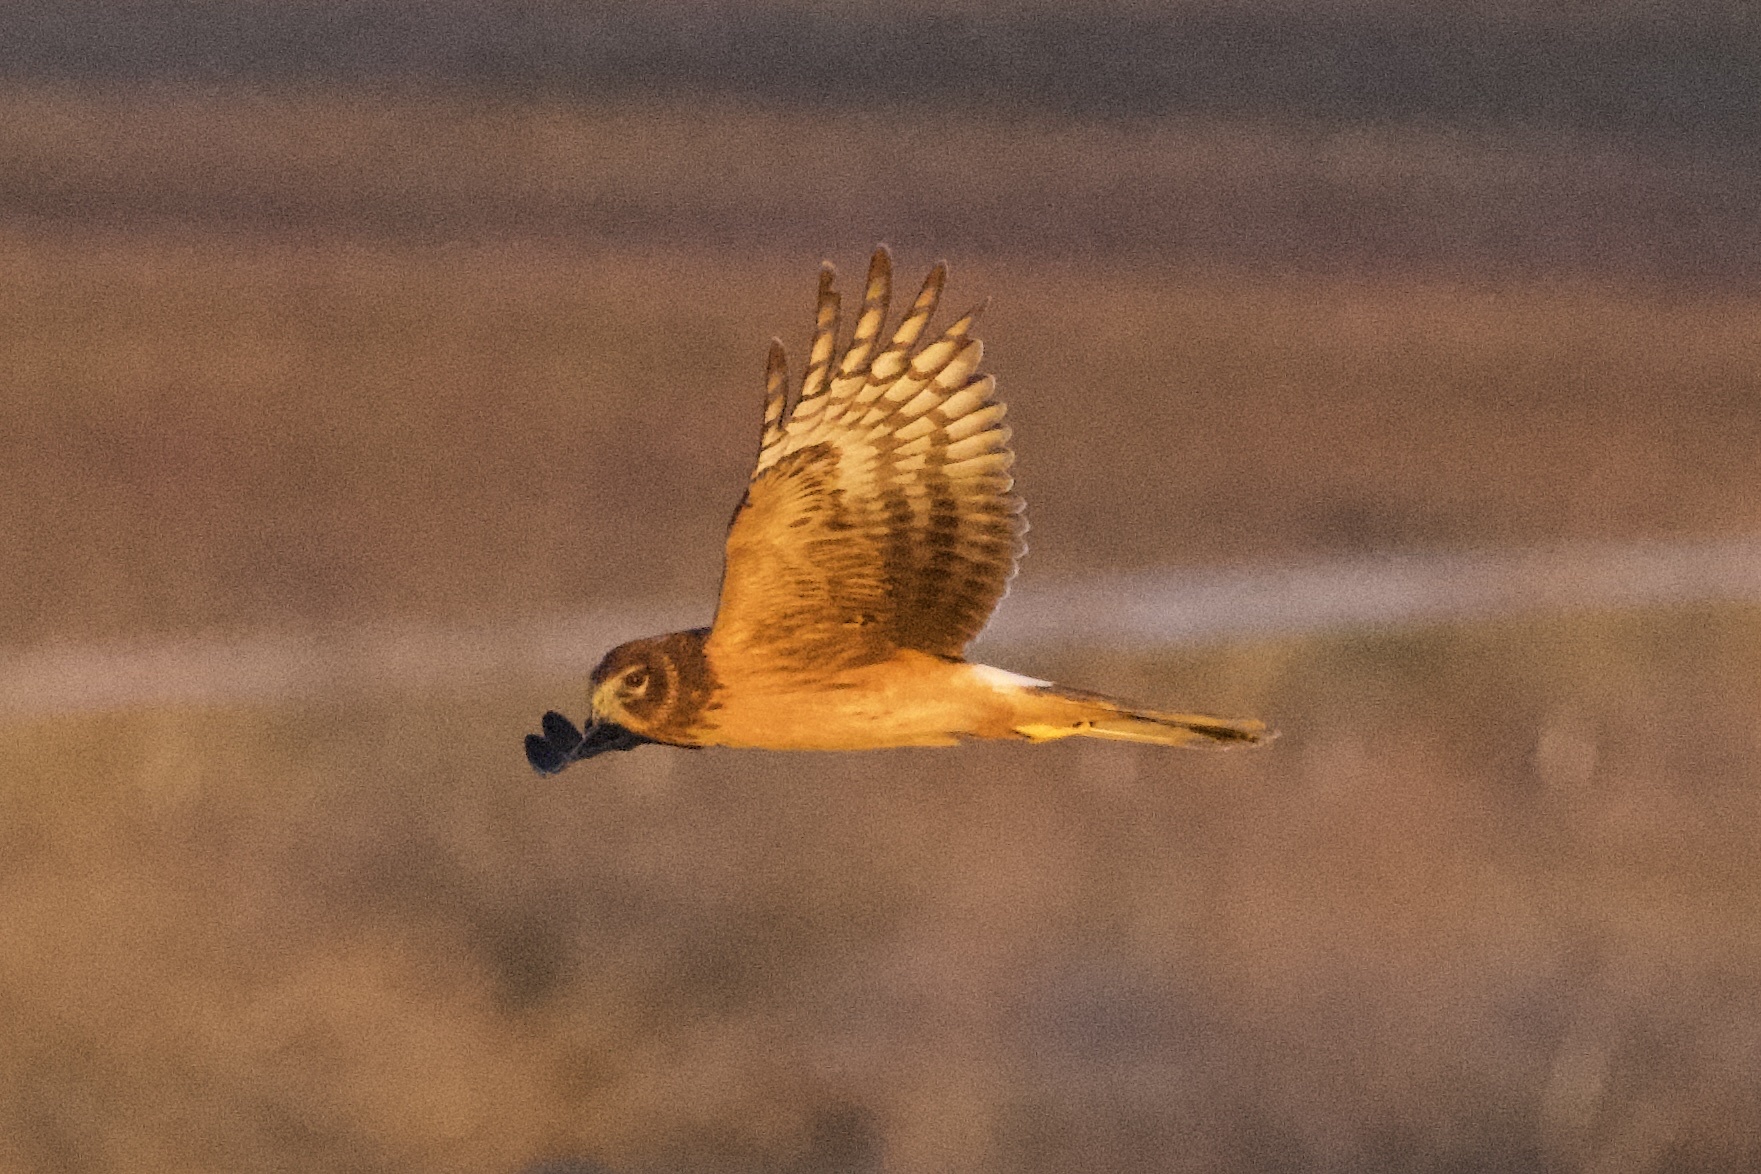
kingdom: Animalia
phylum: Chordata
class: Aves
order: Accipitriformes
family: Accipitridae
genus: Circus
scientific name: Circus cyaneus
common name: Hen harrier
